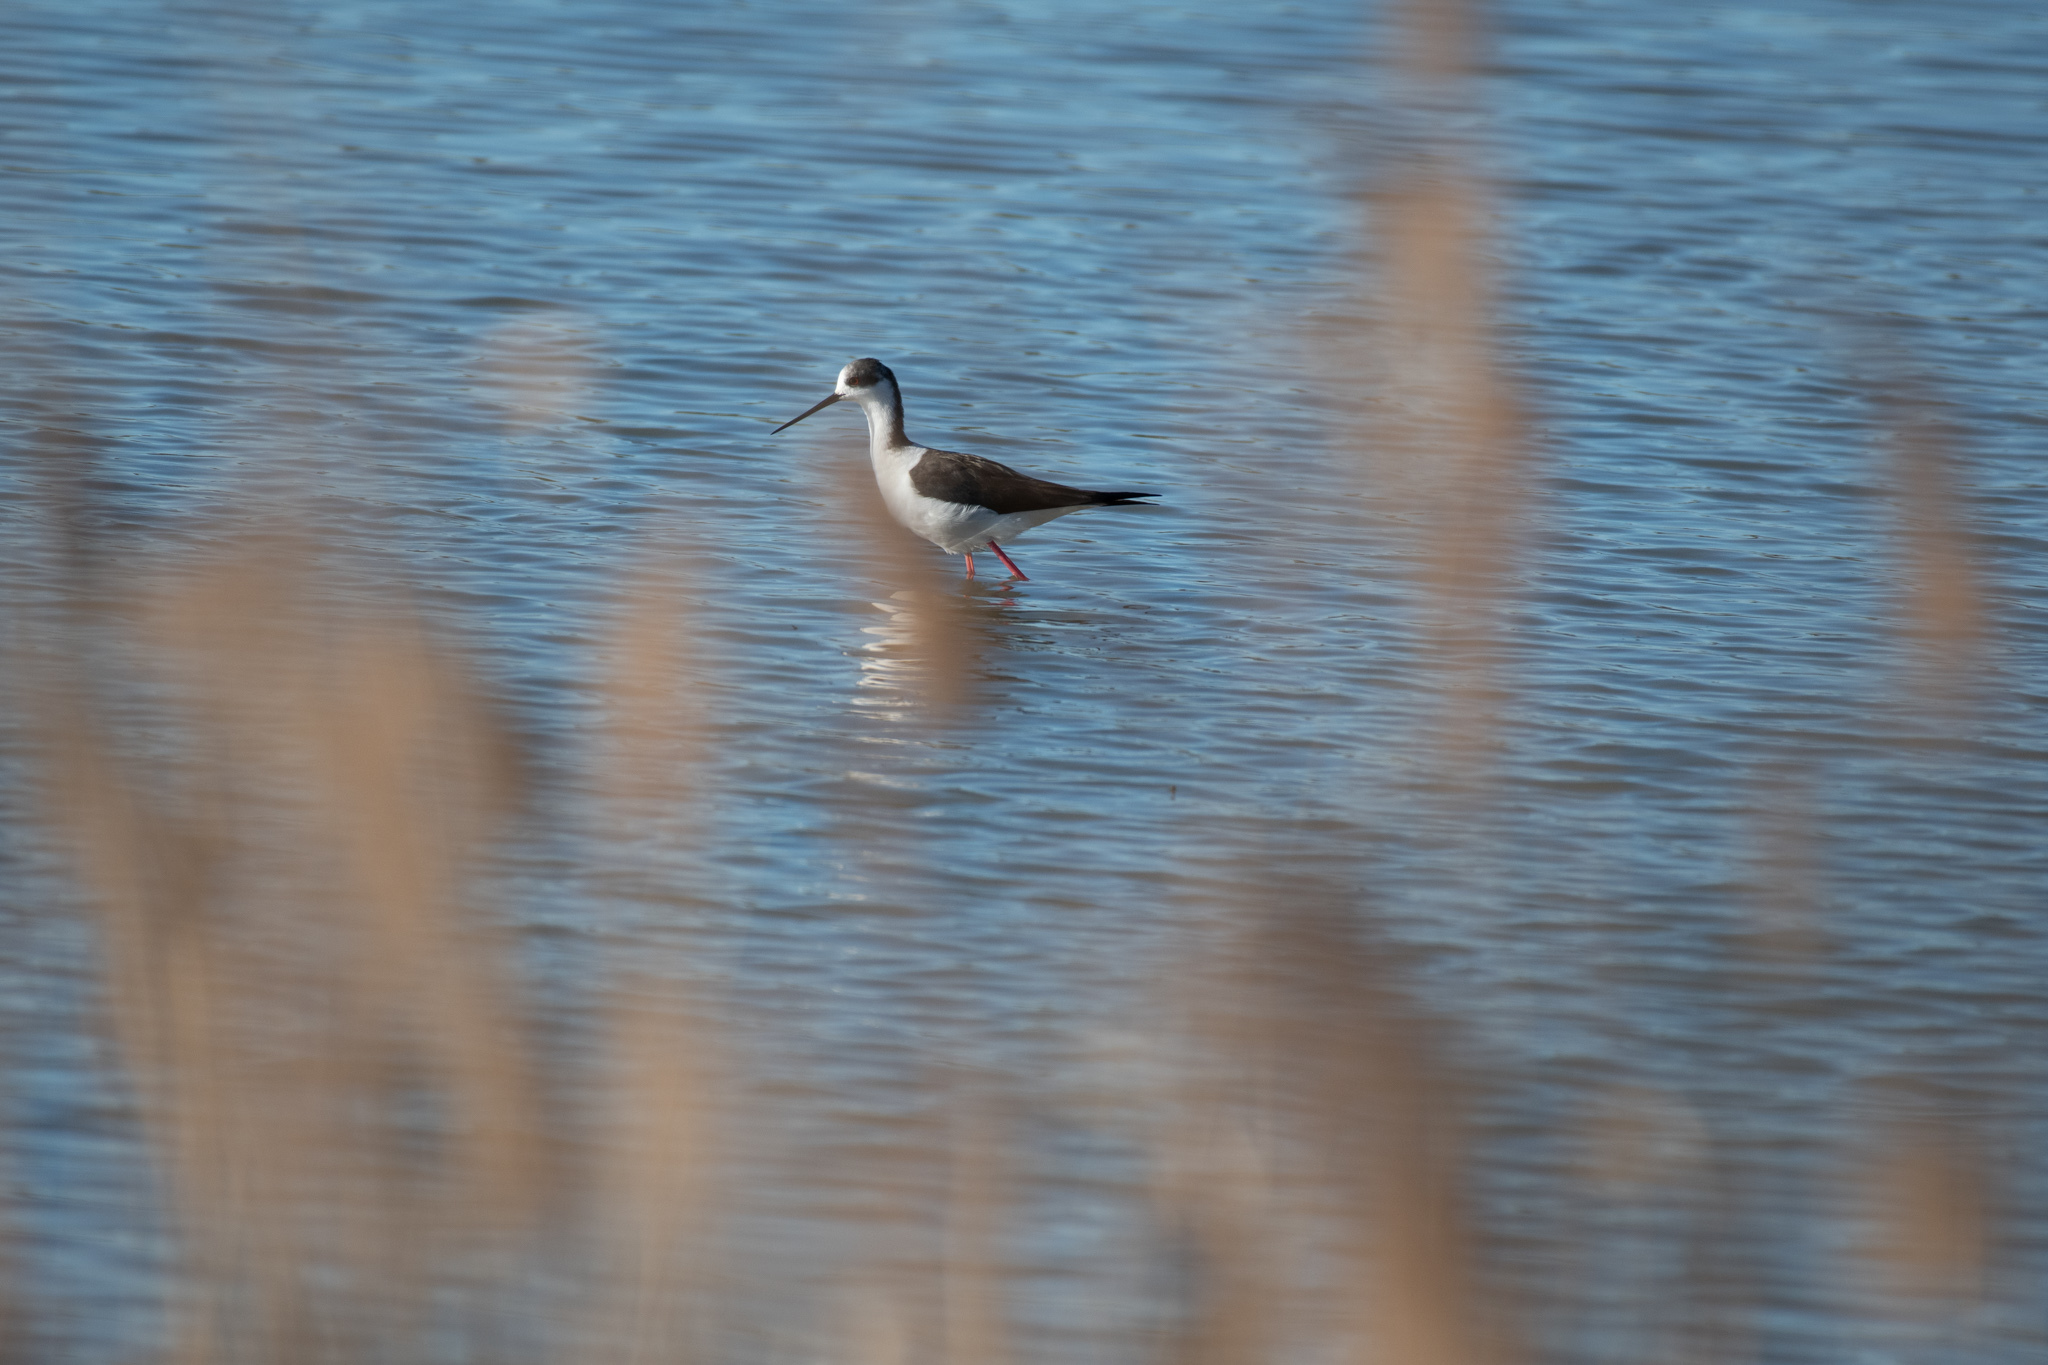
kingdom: Animalia
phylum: Chordata
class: Aves
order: Charadriiformes
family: Recurvirostridae
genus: Himantopus
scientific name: Himantopus himantopus
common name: Black-winged stilt
